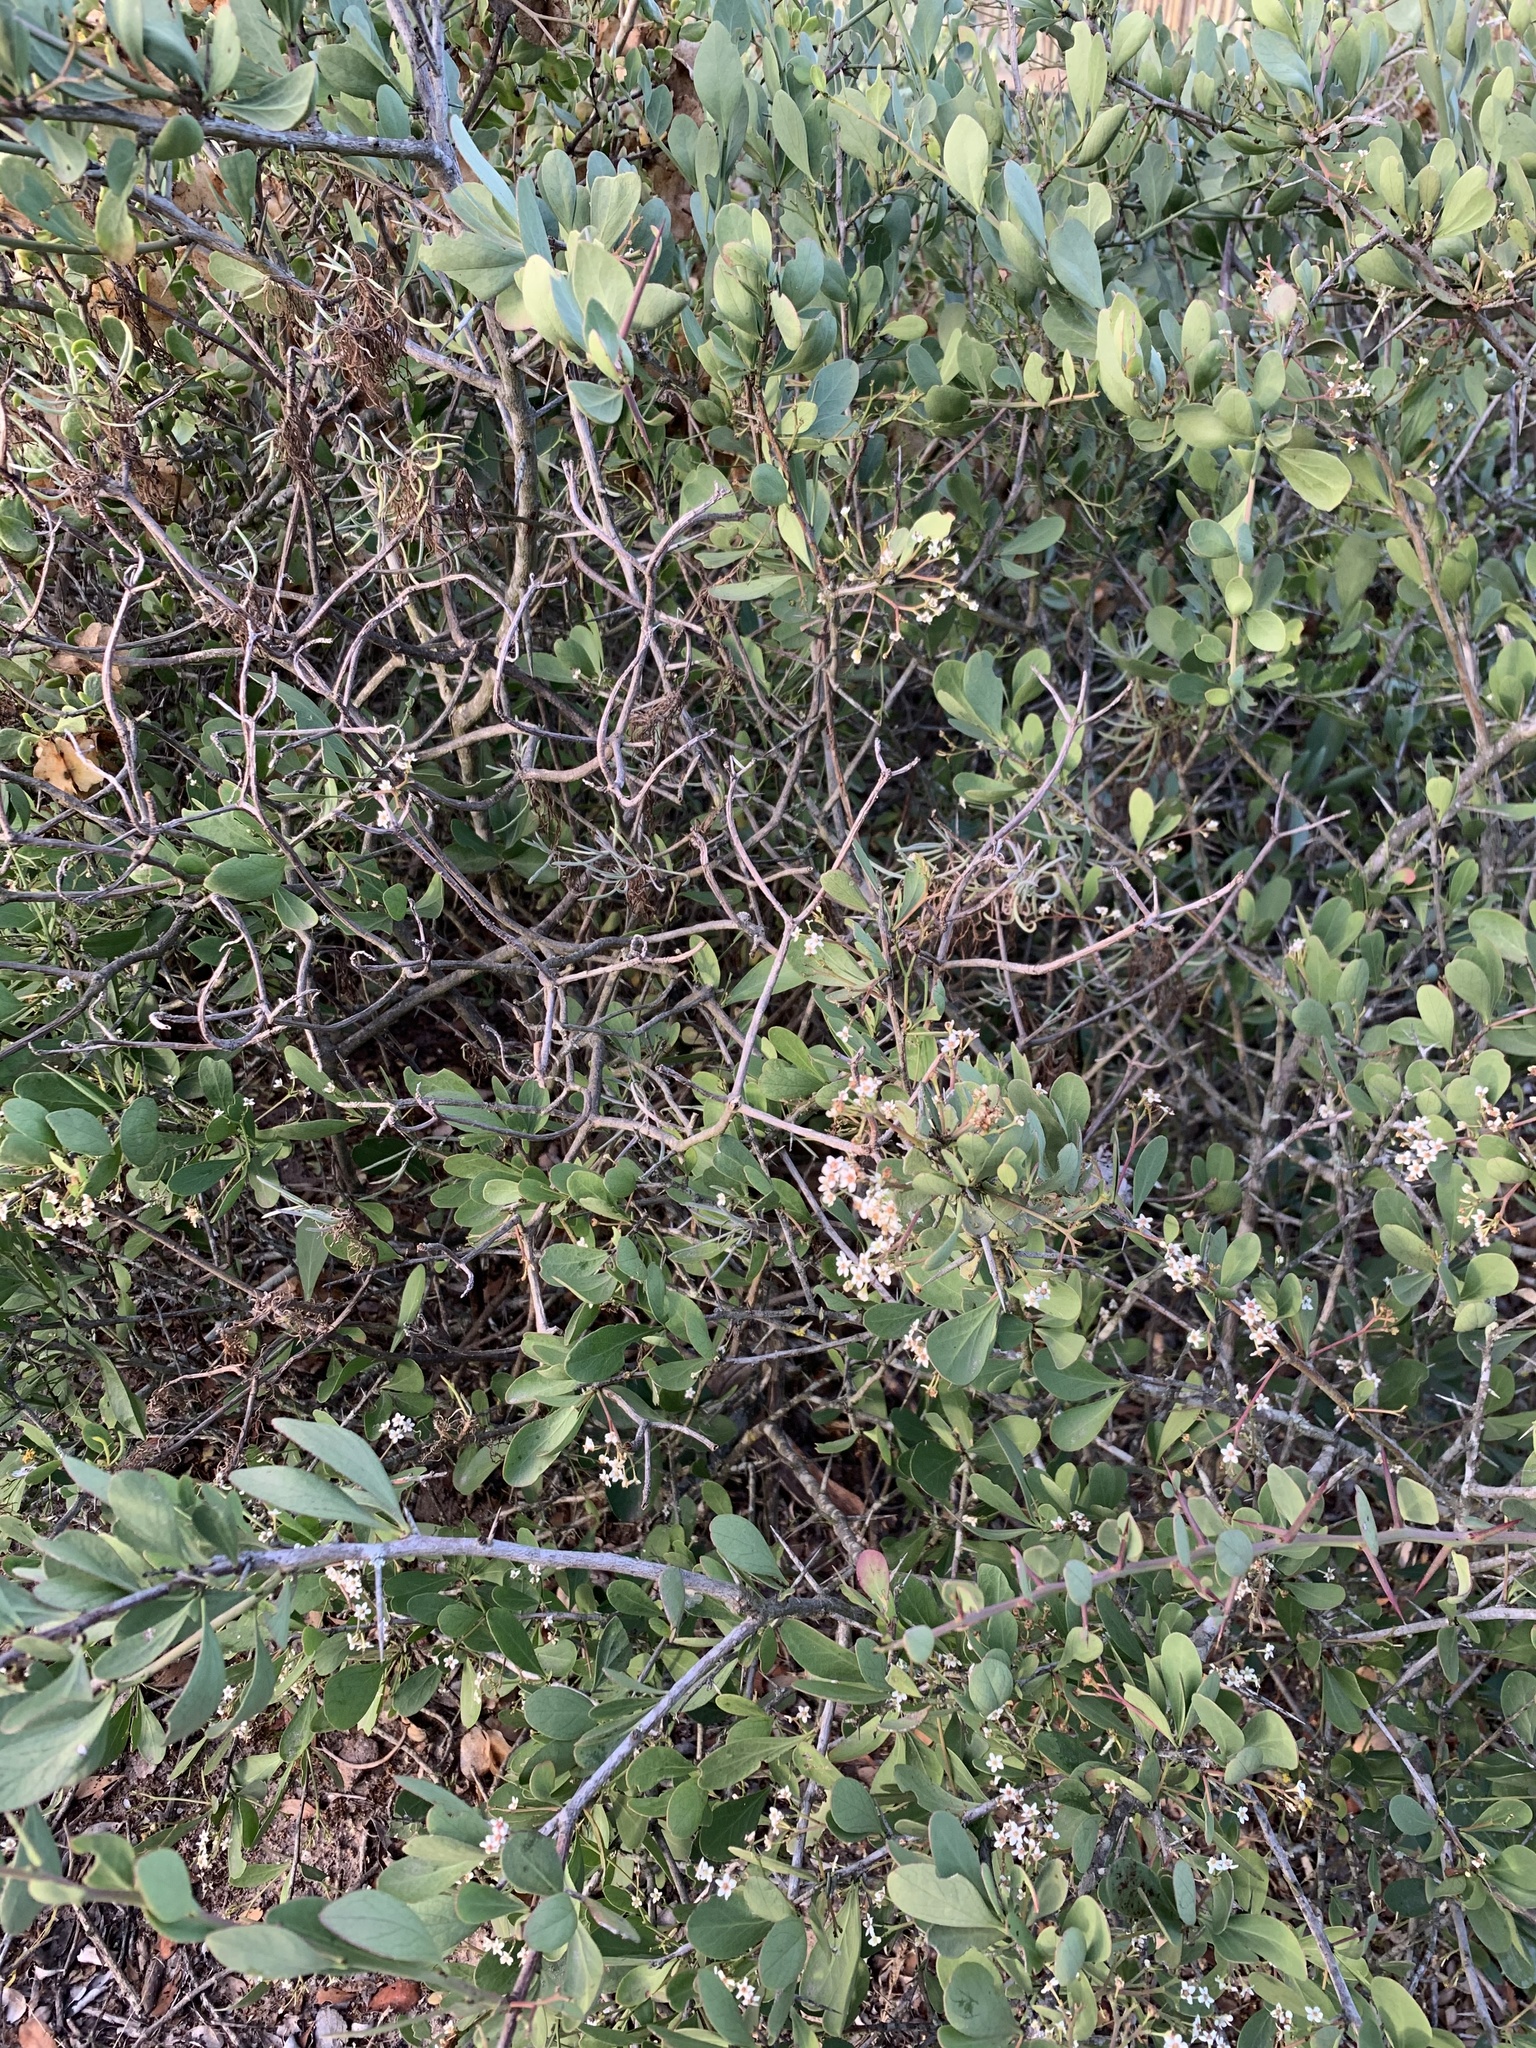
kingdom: Plantae
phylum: Tracheophyta
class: Magnoliopsida
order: Celastrales
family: Celastraceae
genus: Gymnosporia
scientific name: Gymnosporia buxifolia
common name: Common spike-thorn
